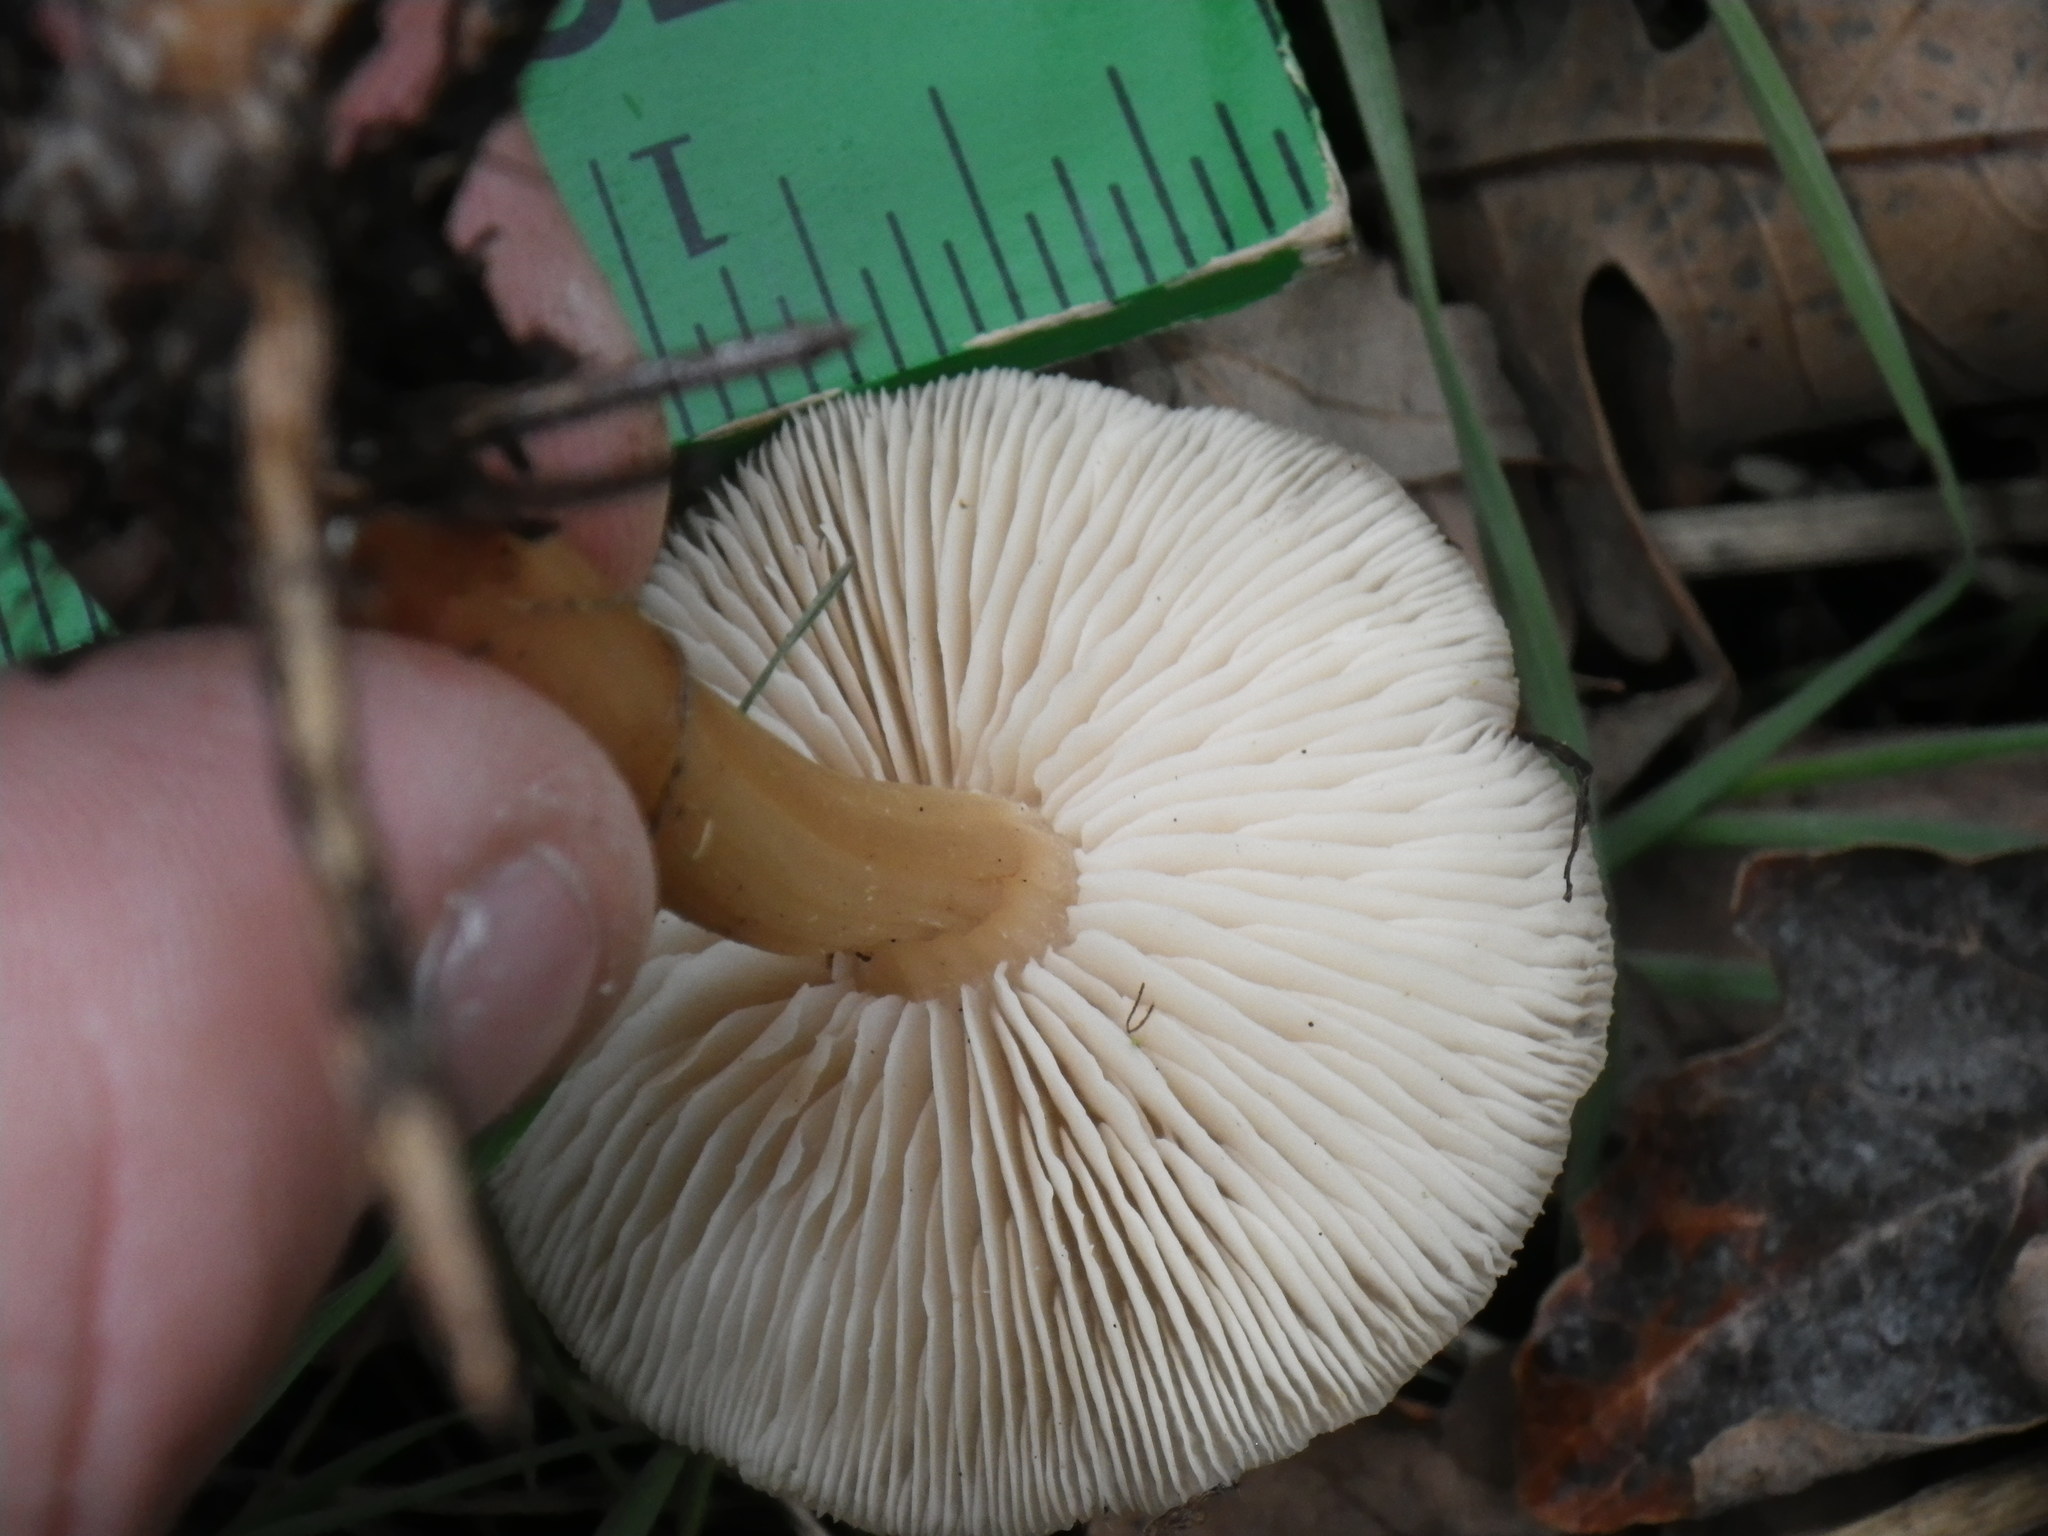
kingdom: Fungi
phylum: Basidiomycota
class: Agaricomycetes
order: Agaricales
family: Omphalotaceae
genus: Gymnopus
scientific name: Gymnopus dryophilus
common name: Penny top
